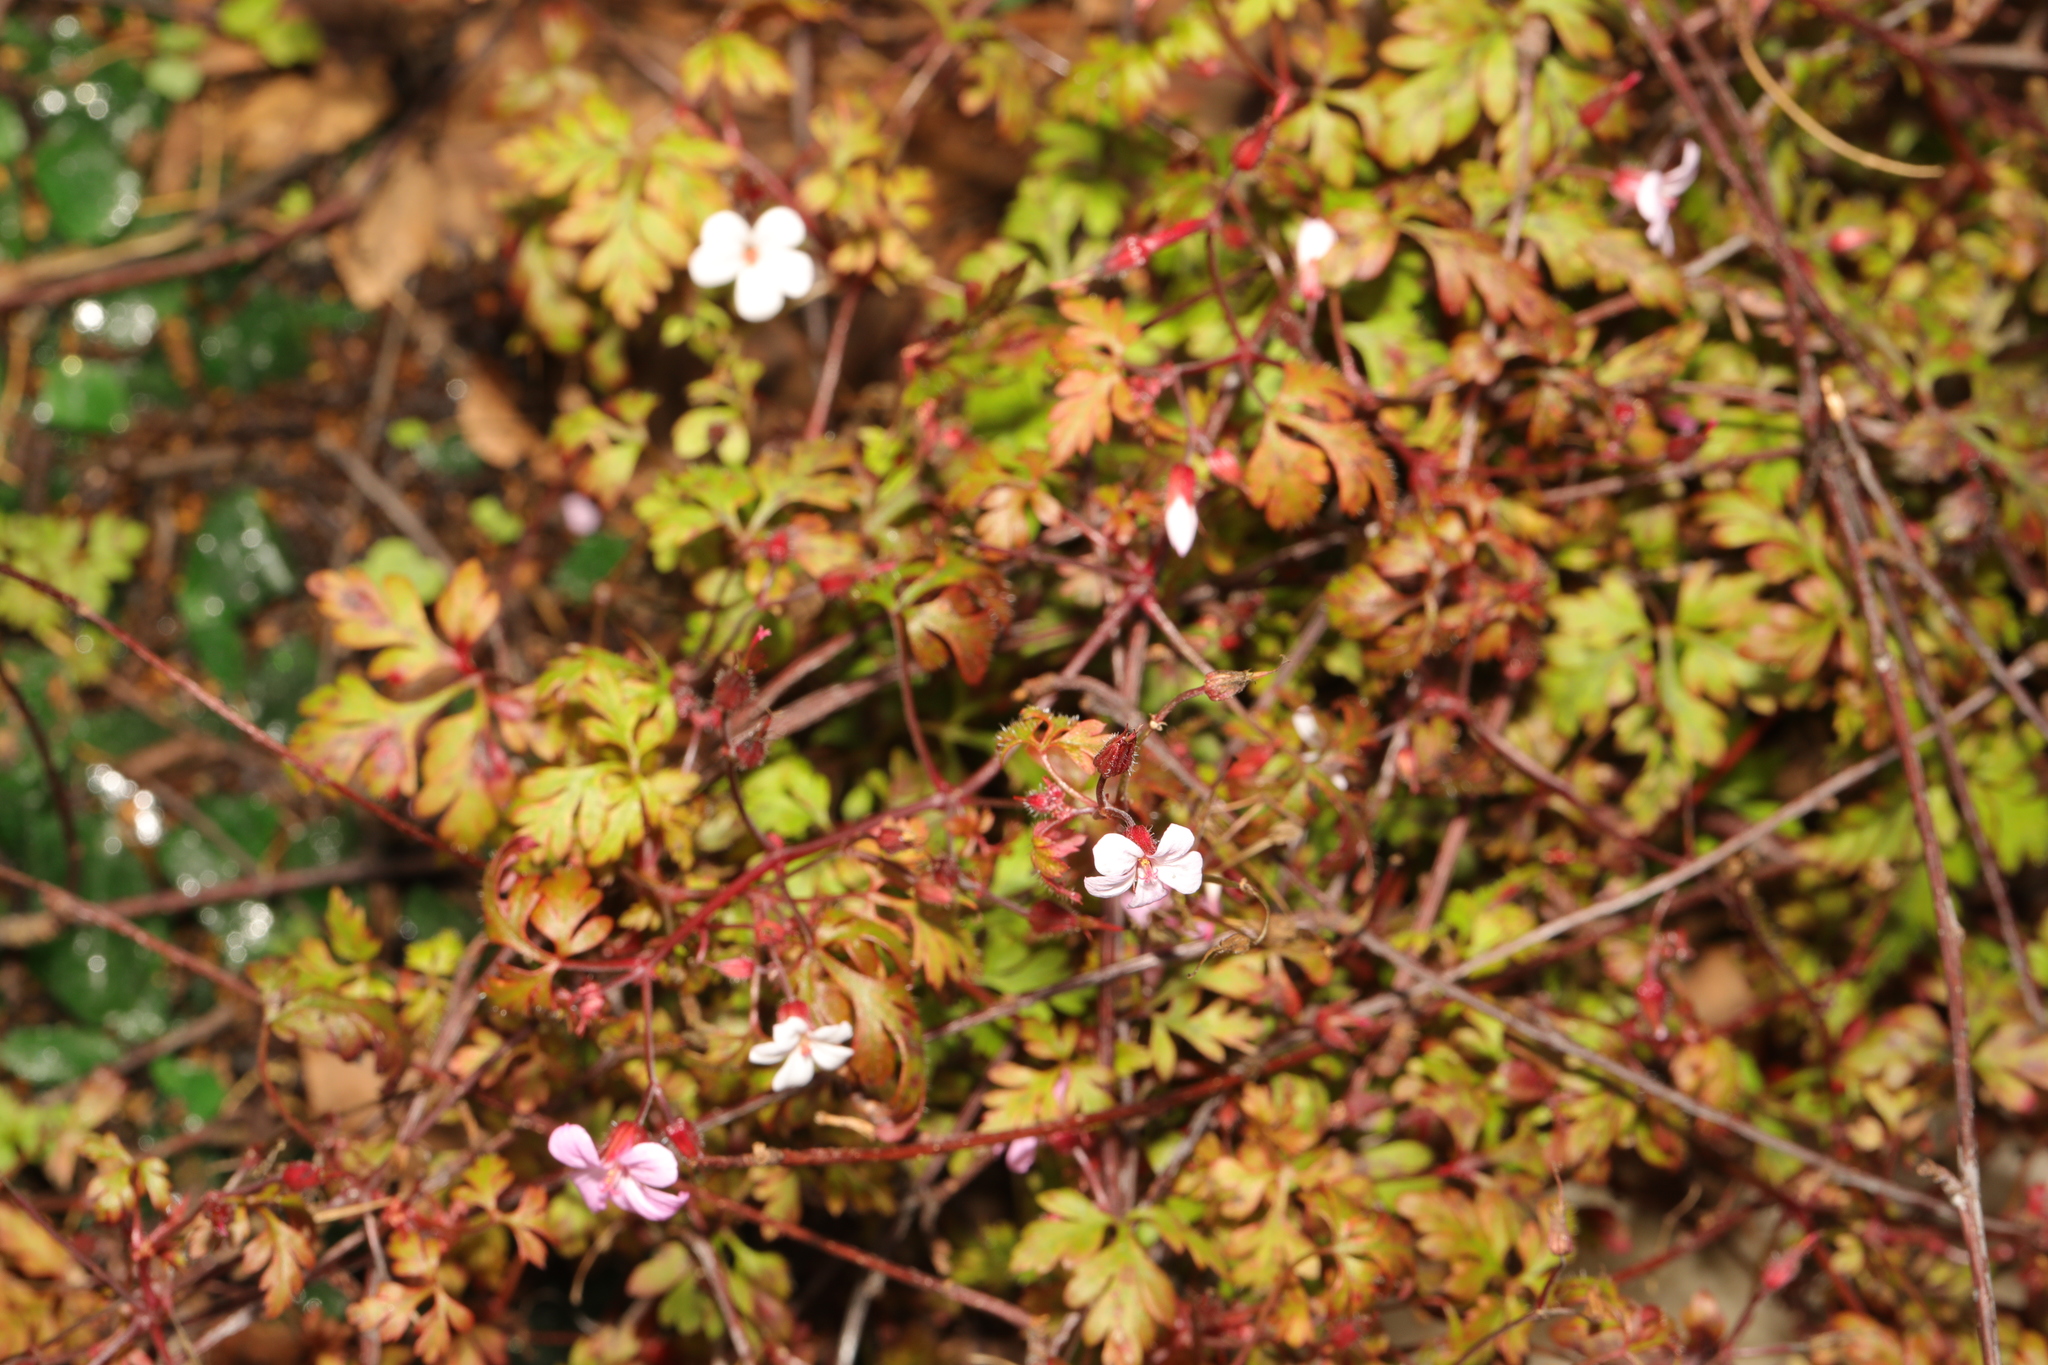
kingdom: Plantae
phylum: Tracheophyta
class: Magnoliopsida
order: Geraniales
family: Geraniaceae
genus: Geranium
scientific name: Geranium robertianum
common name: Herb-robert
